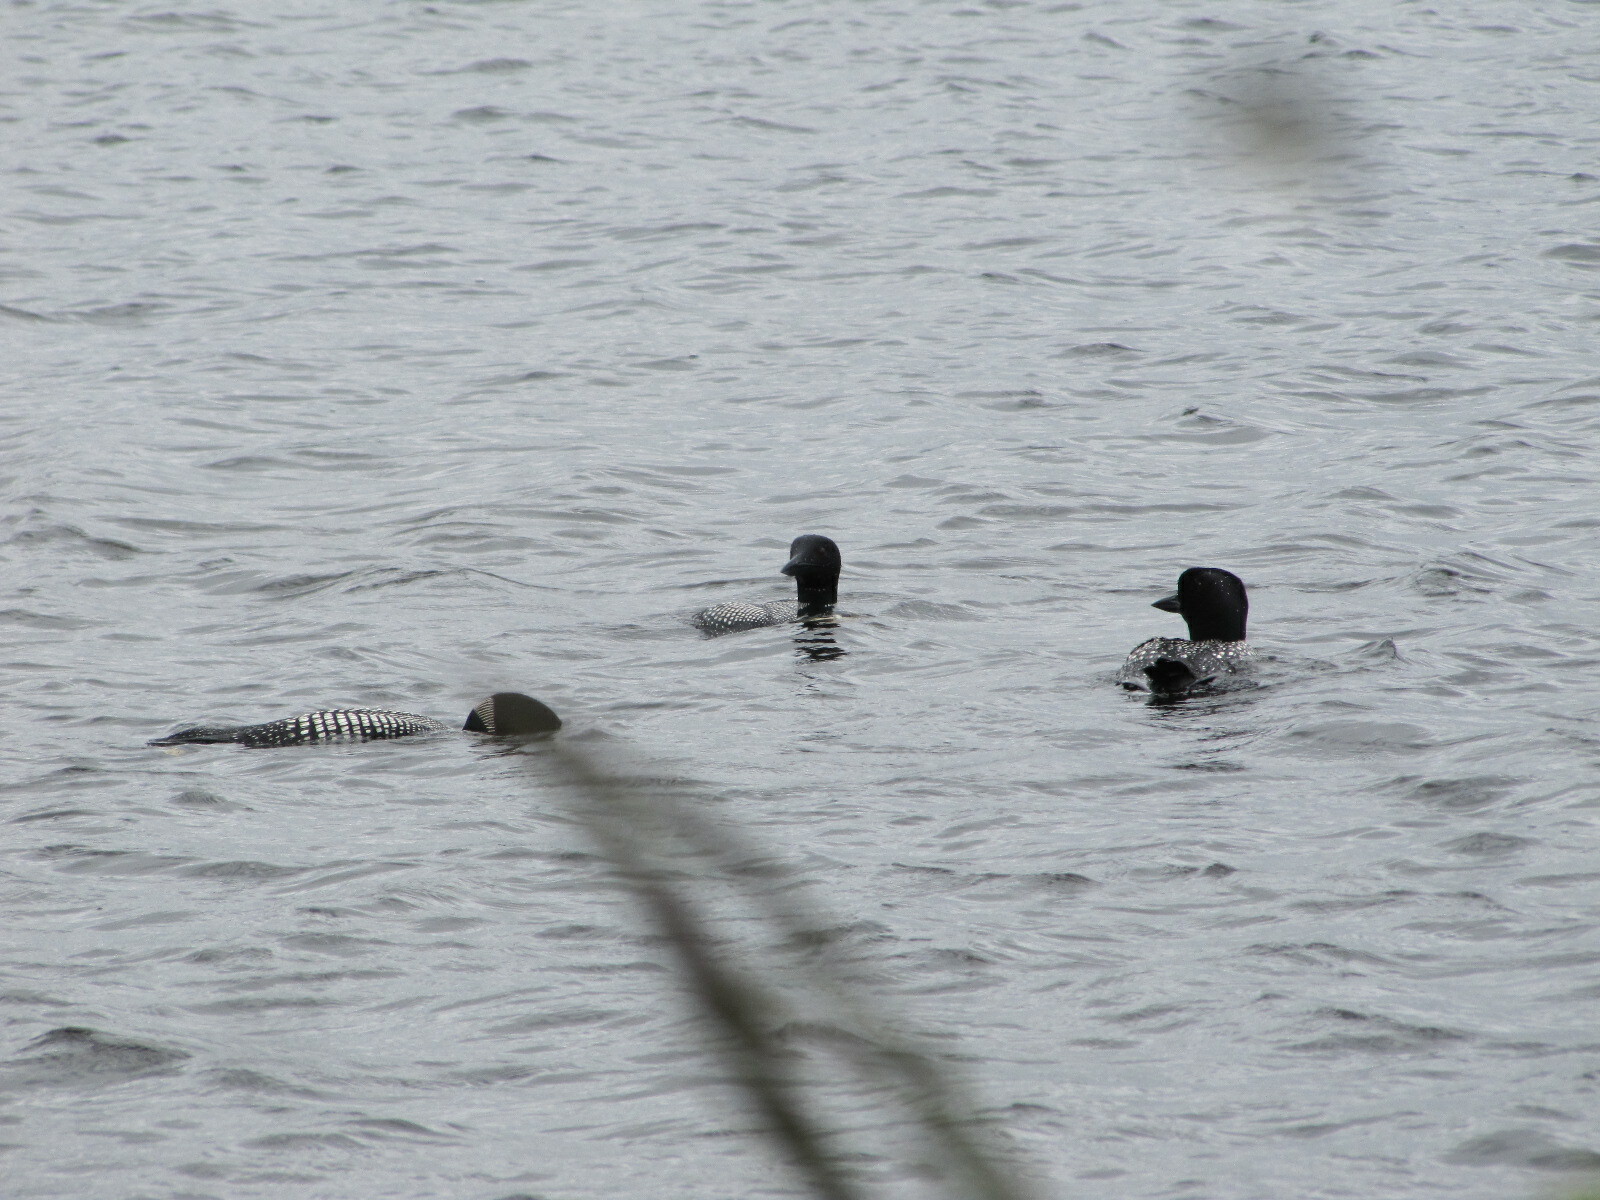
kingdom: Animalia
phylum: Chordata
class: Aves
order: Gaviiformes
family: Gaviidae
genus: Gavia
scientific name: Gavia immer
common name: Common loon
